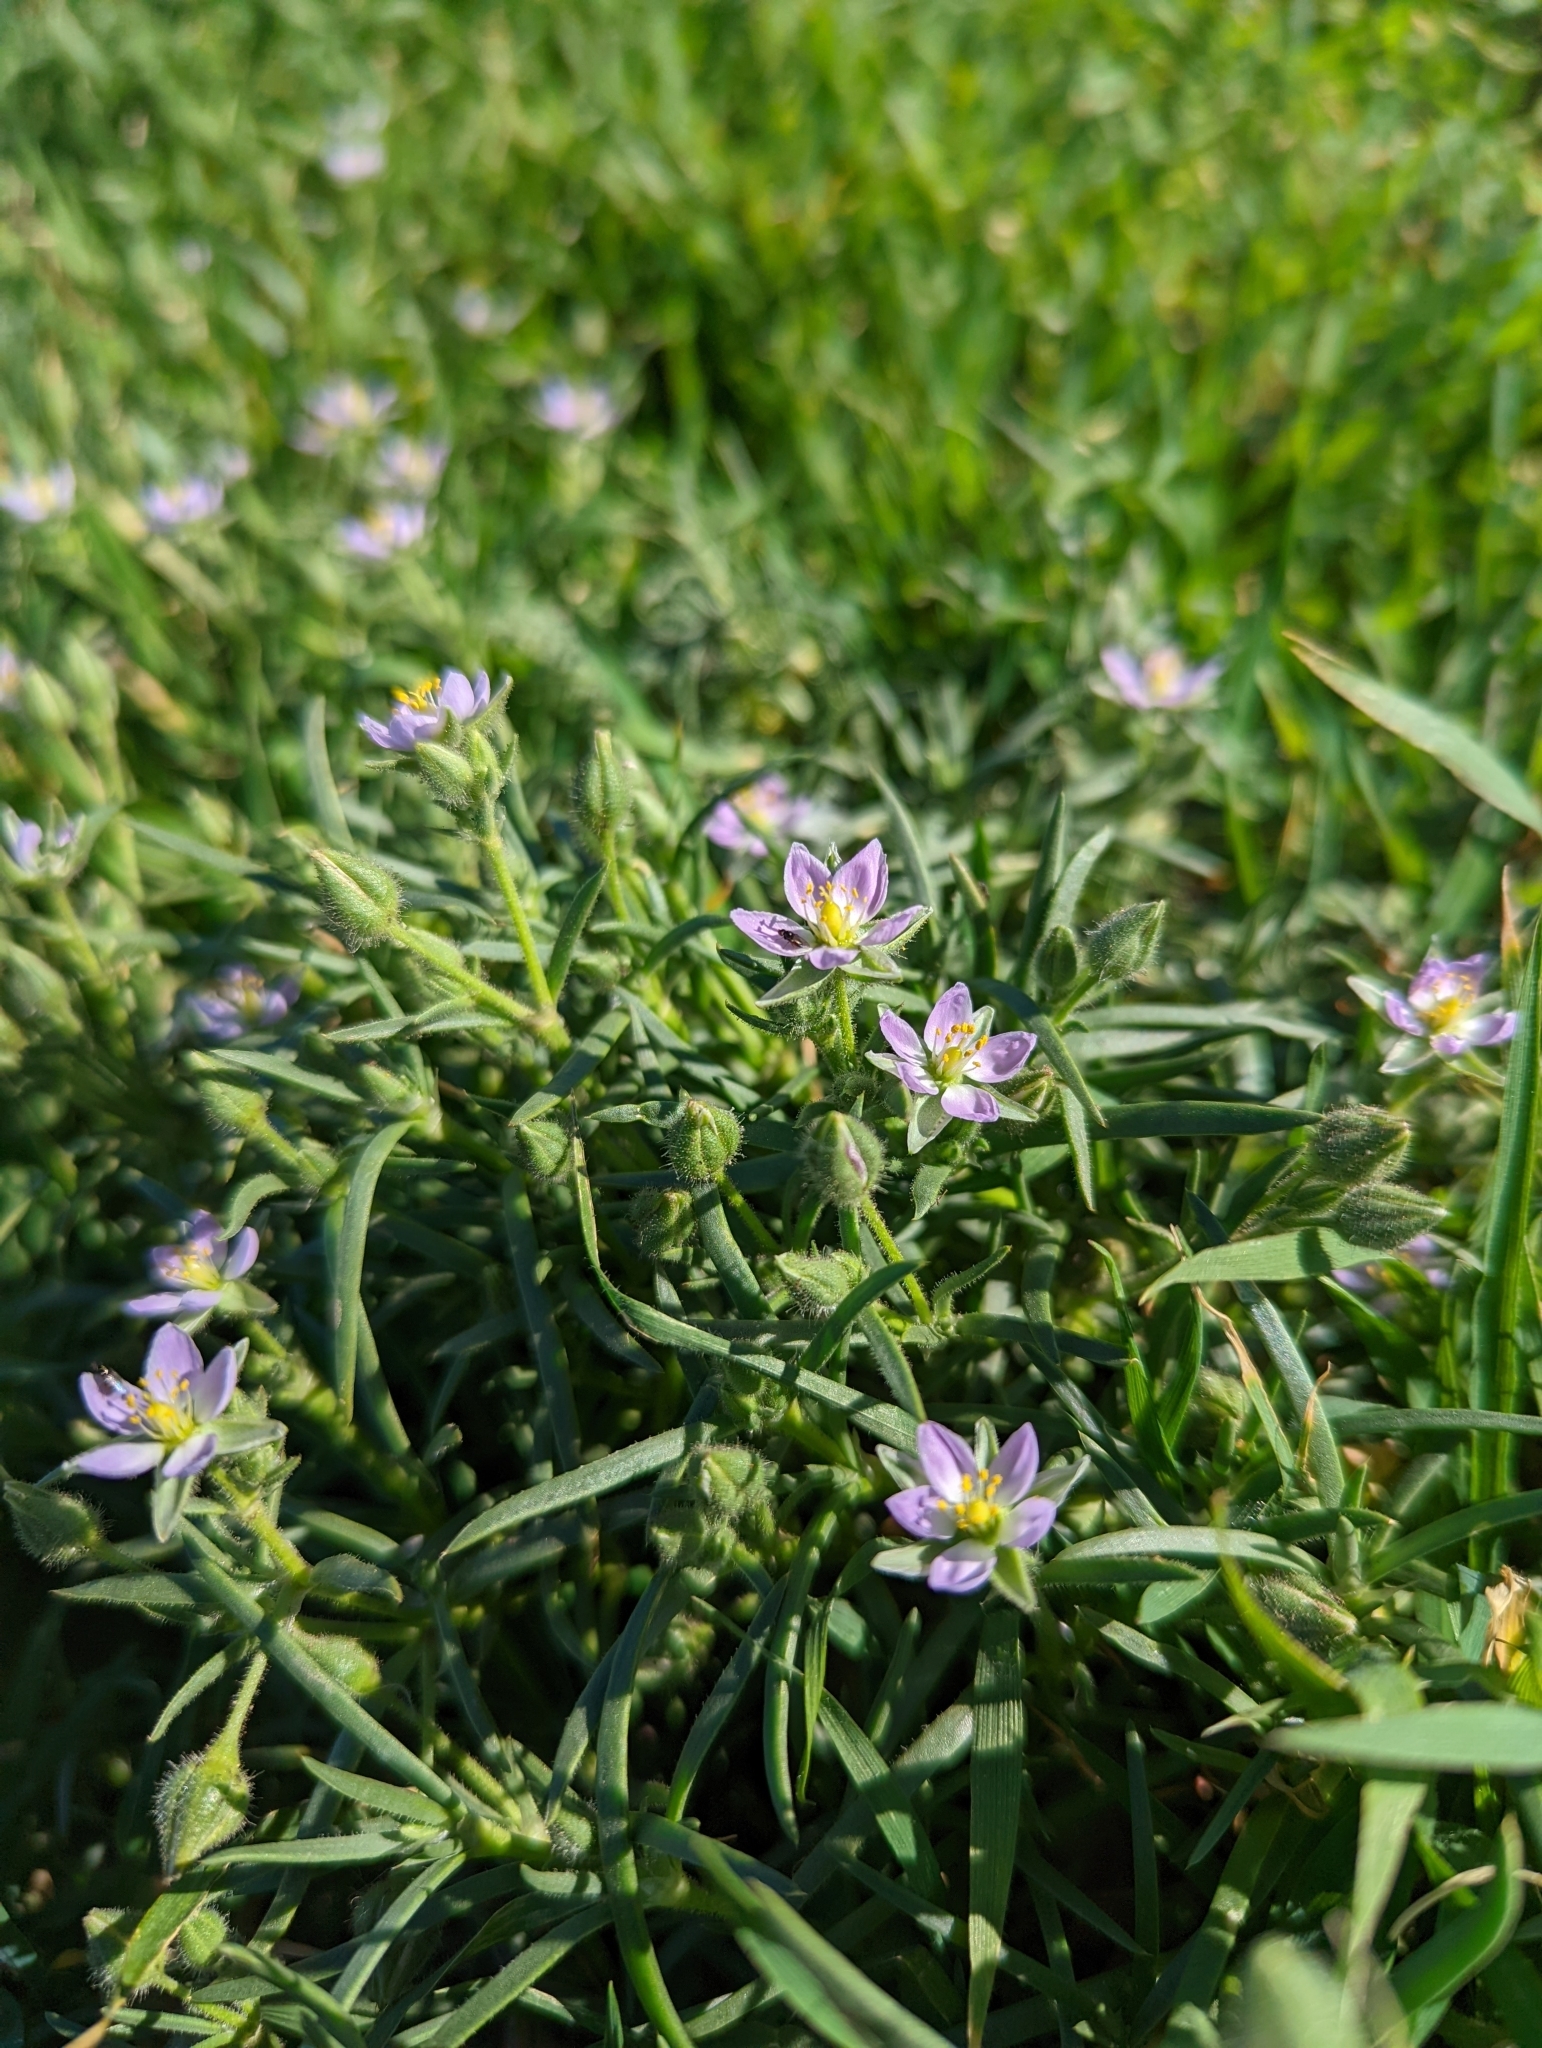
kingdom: Plantae
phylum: Tracheophyta
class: Magnoliopsida
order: Caryophyllales
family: Caryophyllaceae
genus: Spergularia
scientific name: Spergularia macrotheca
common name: Beach sand-spurrey
